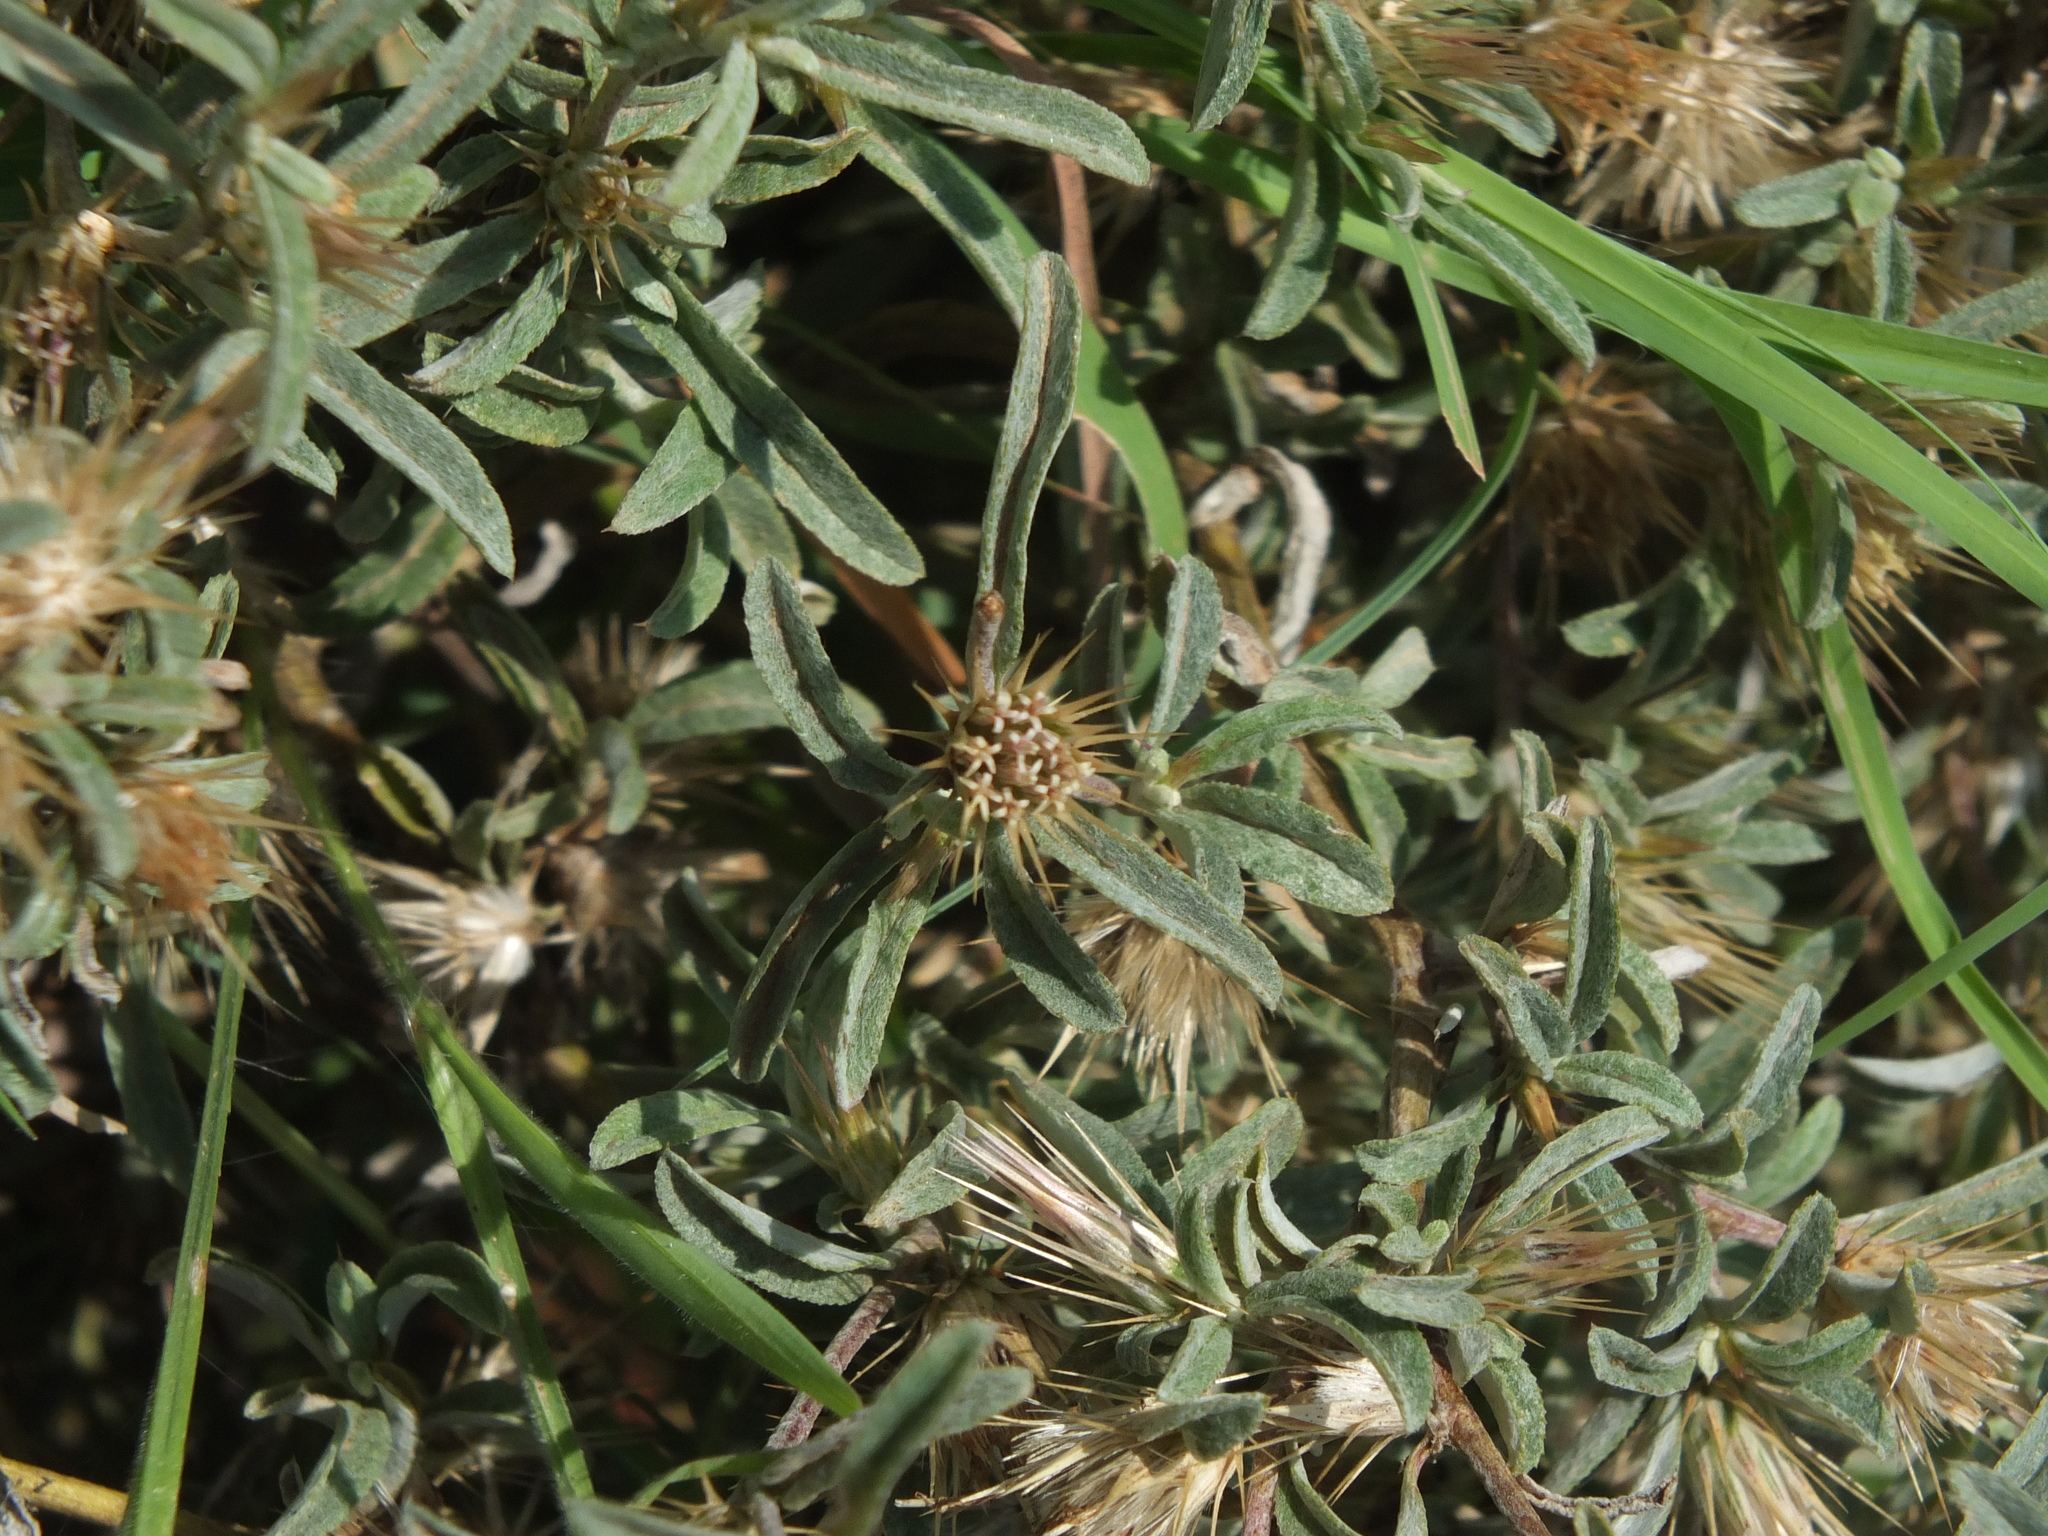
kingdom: Plantae
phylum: Tracheophyta
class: Magnoliopsida
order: Asterales
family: Asteraceae
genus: Dicoma
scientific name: Dicoma tomentosa
